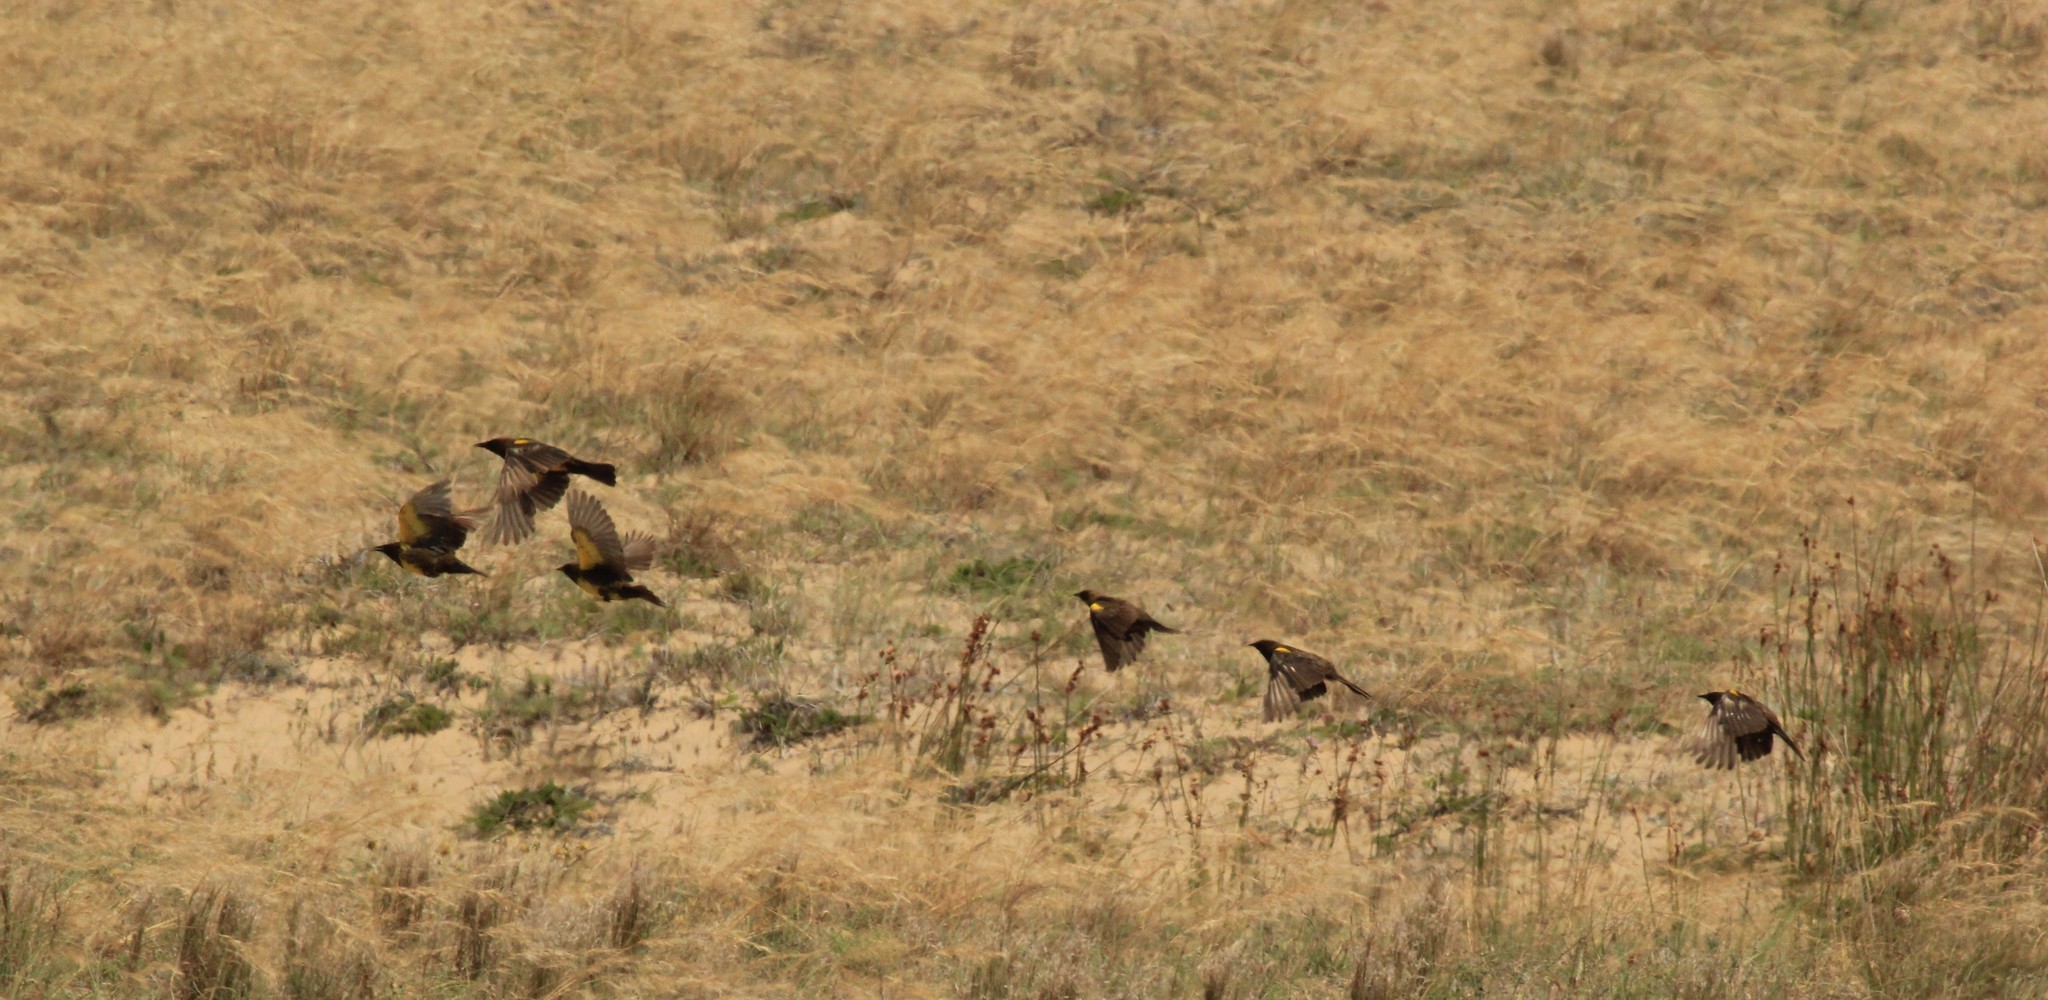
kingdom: Animalia
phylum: Chordata
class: Aves
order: Passeriformes
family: Icteridae
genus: Pseudoleistes
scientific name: Pseudoleistes virescens
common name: Brown-and-yellow marshbird
